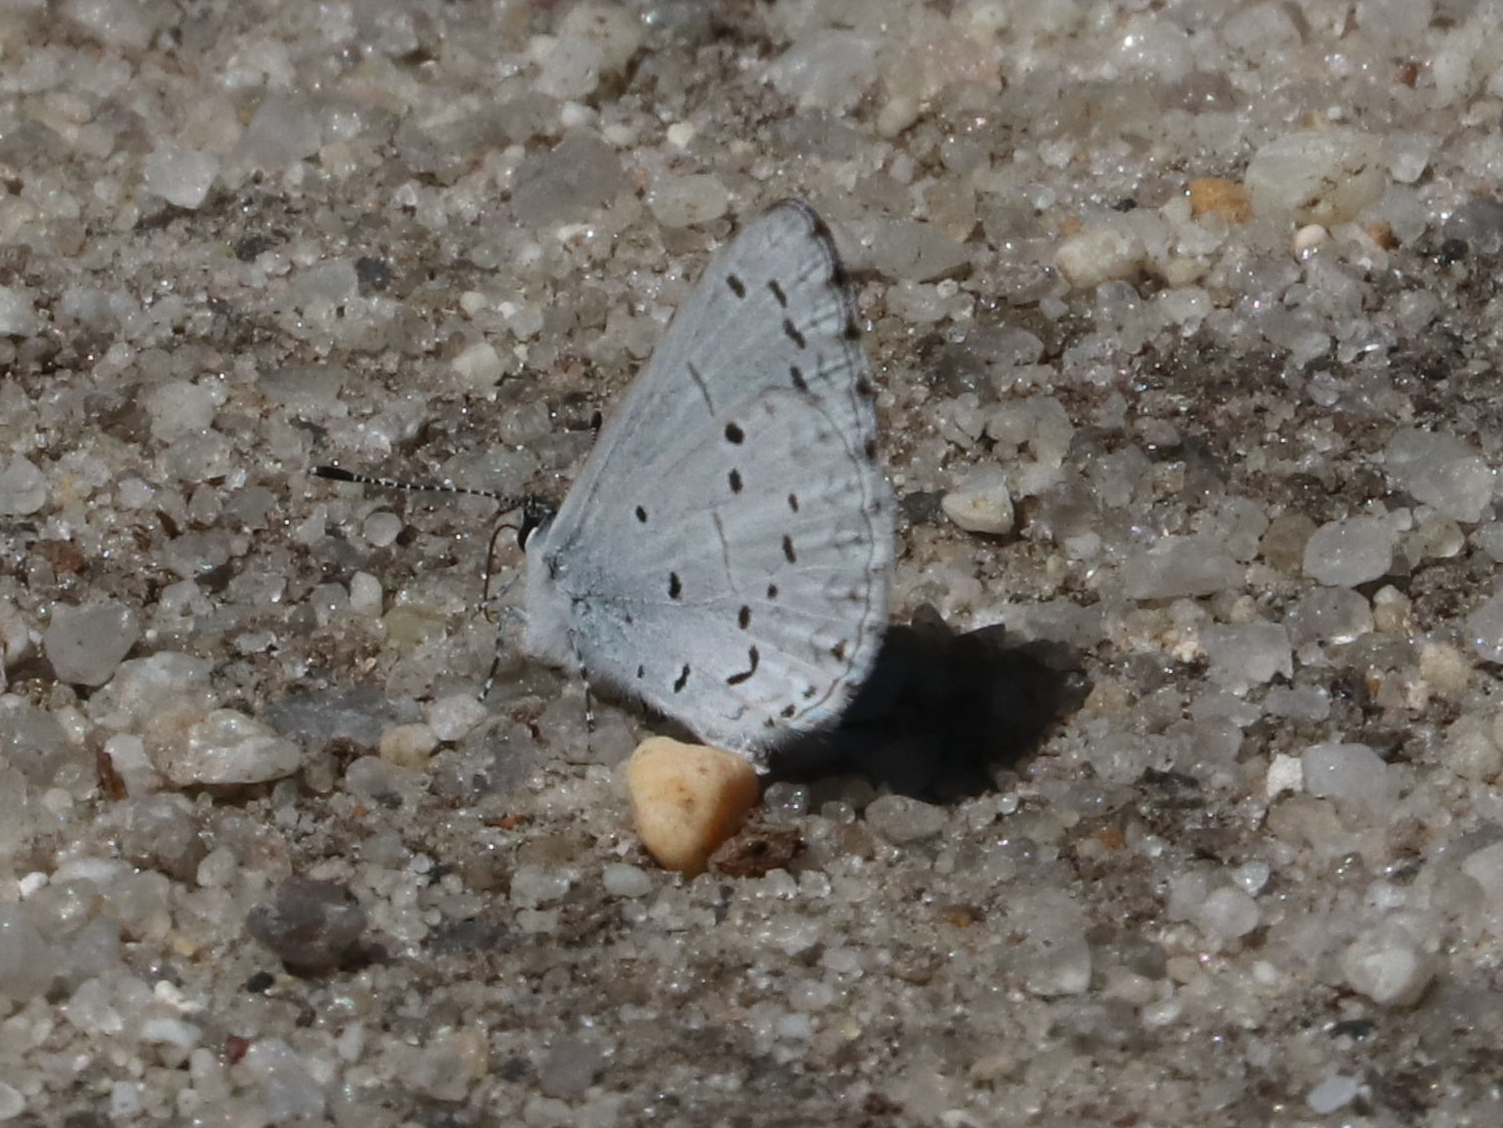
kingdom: Animalia
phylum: Arthropoda
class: Insecta
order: Lepidoptera
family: Lycaenidae
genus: Celastrina
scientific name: Celastrina idella
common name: Holly azure
